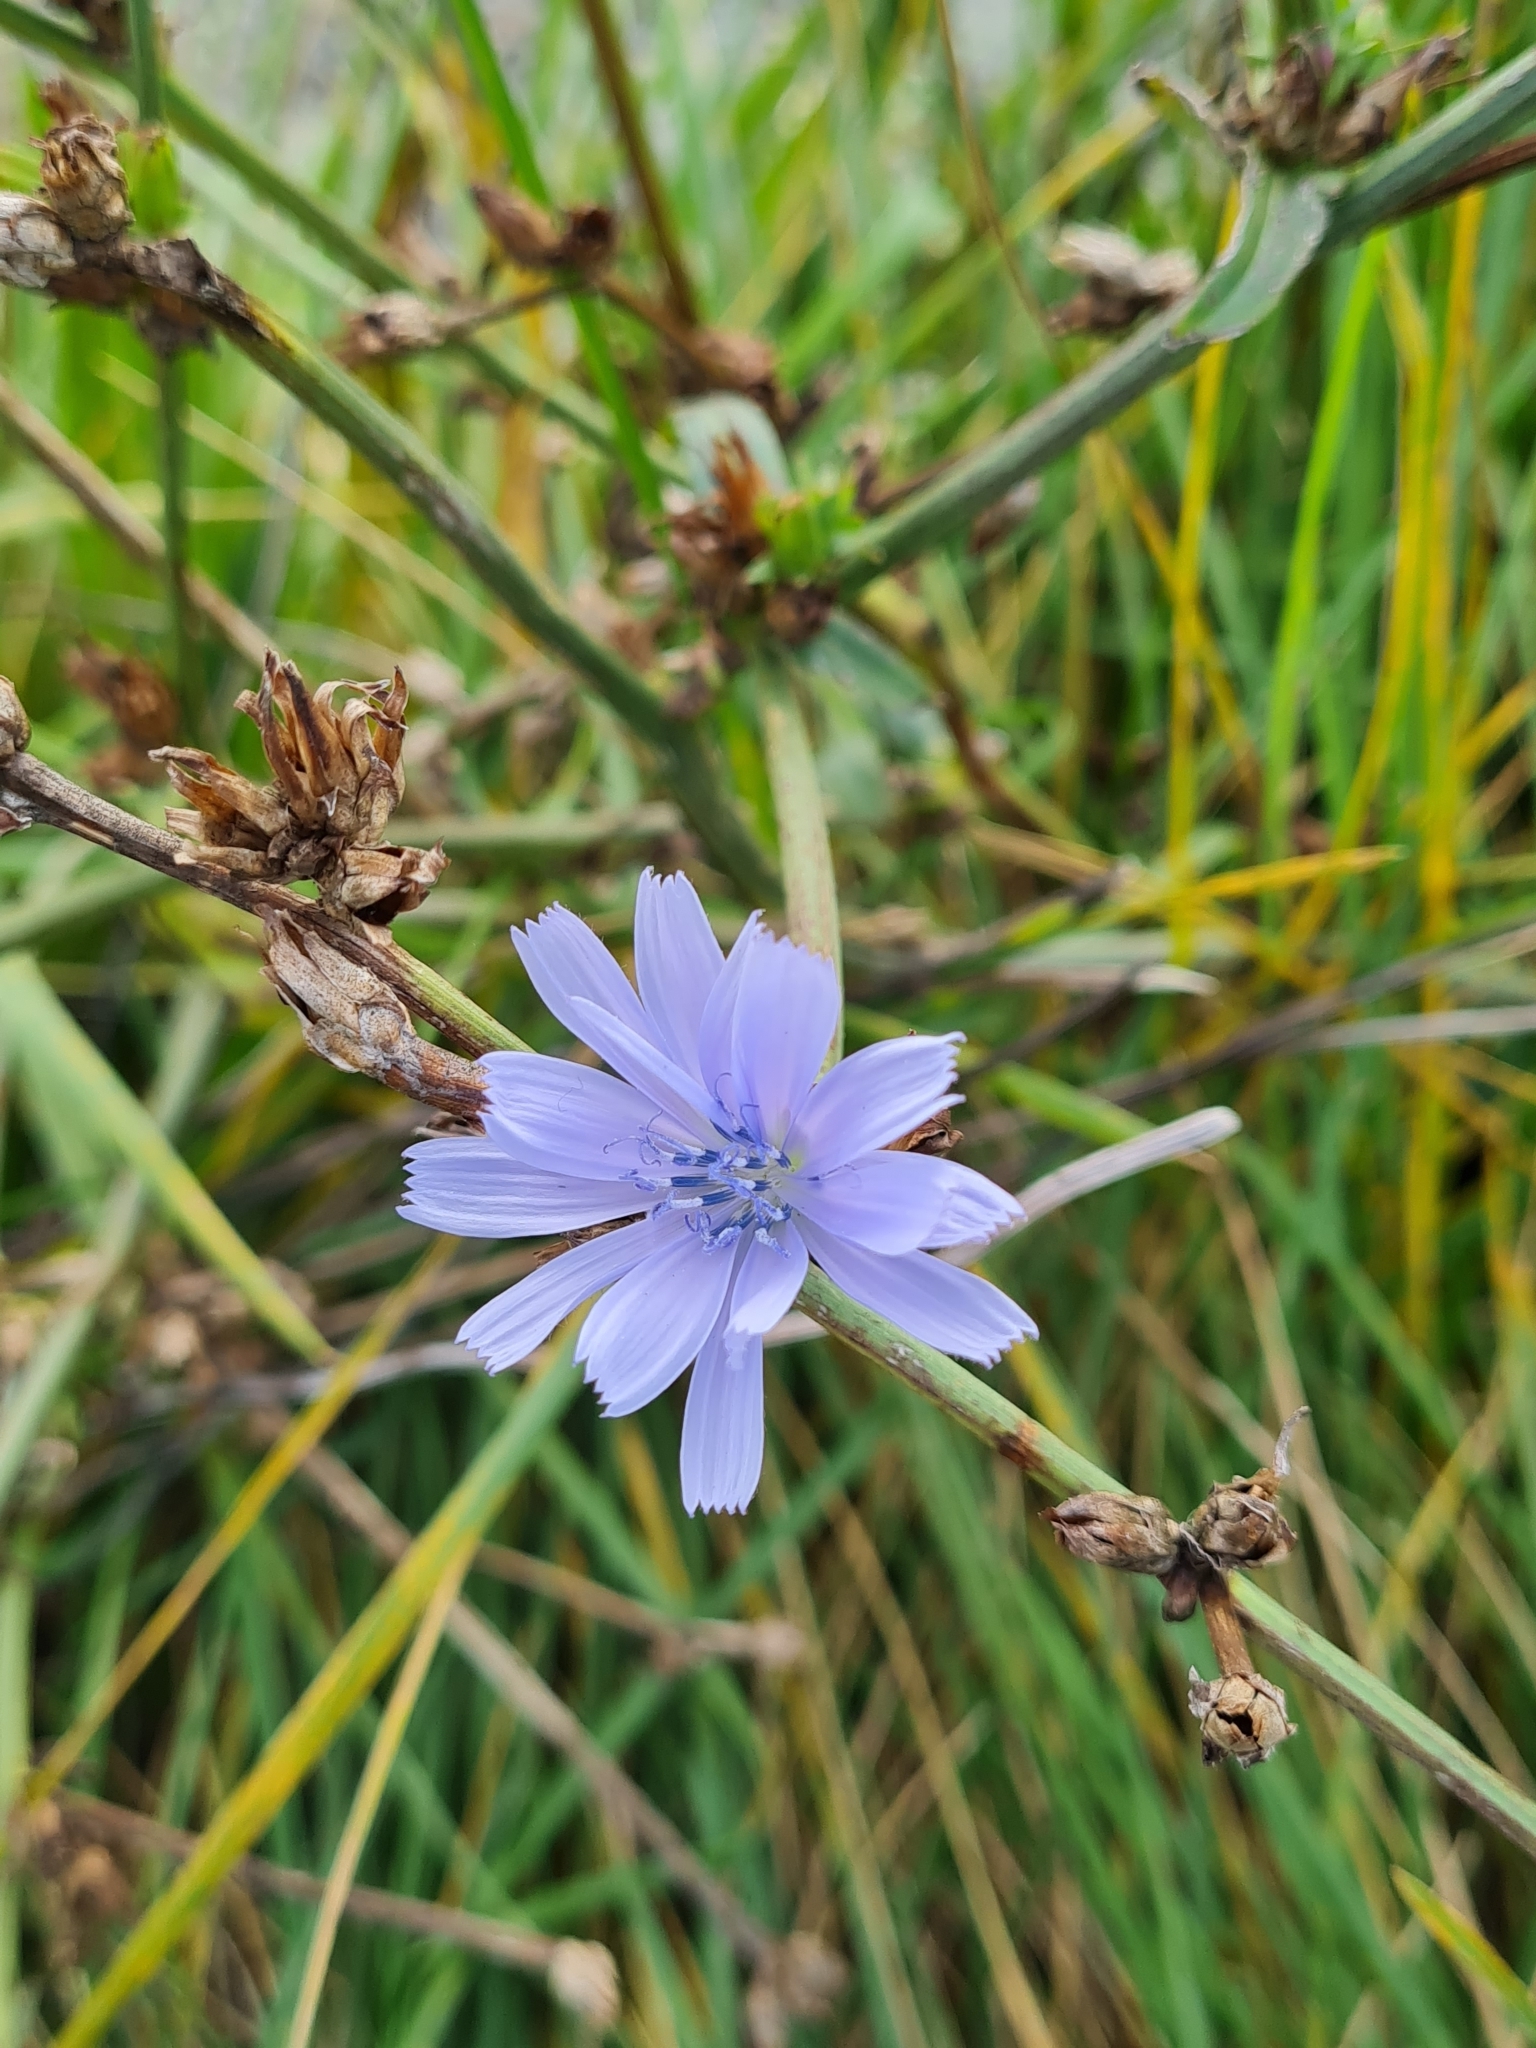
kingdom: Plantae
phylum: Tracheophyta
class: Magnoliopsida
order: Asterales
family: Asteraceae
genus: Cichorium
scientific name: Cichorium intybus
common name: Chicory
